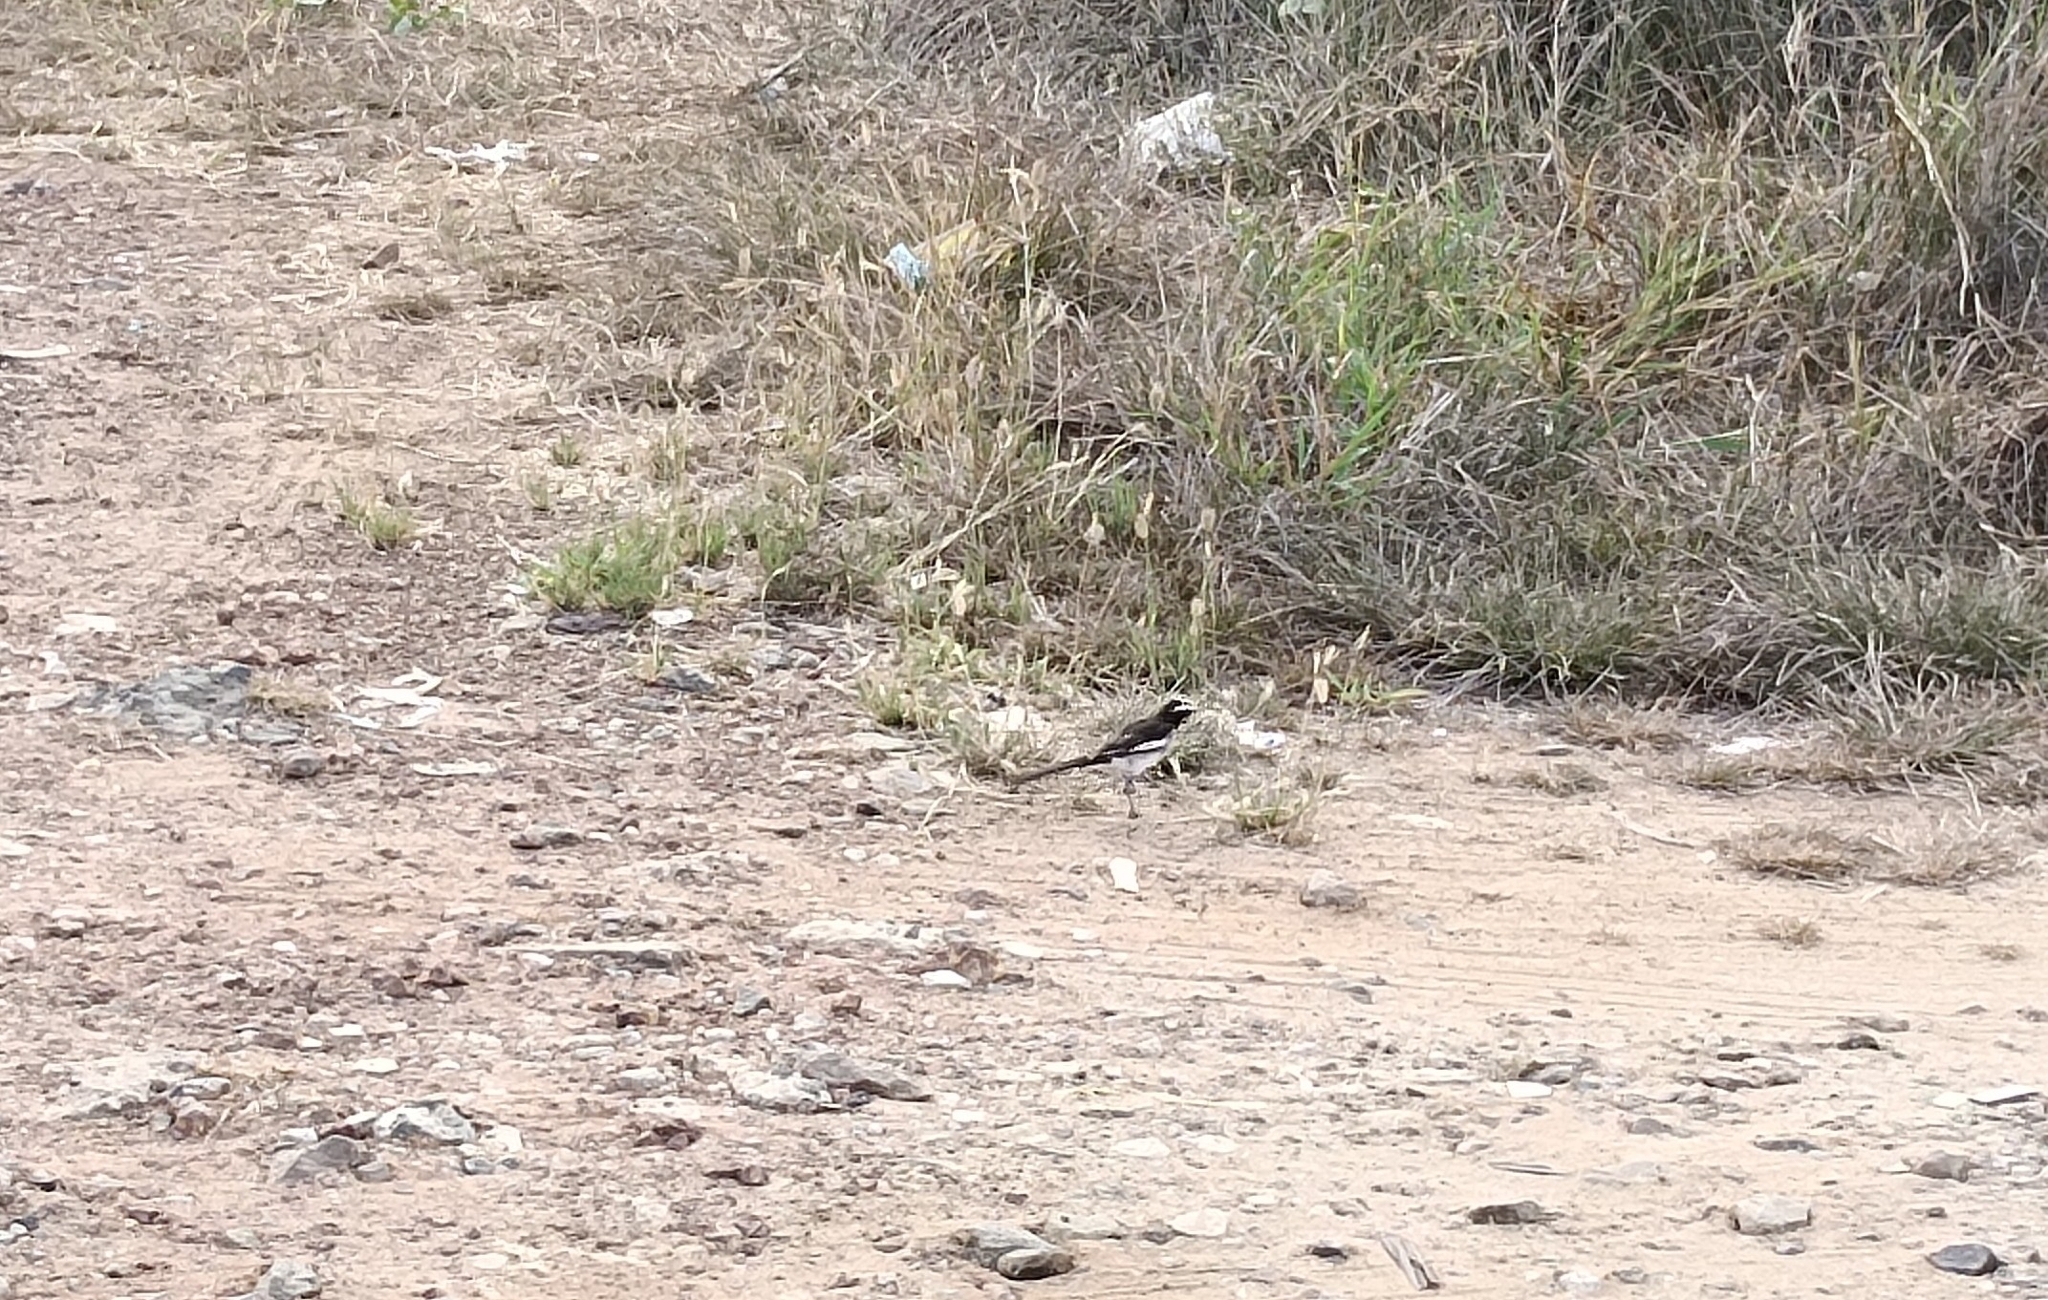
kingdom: Animalia
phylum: Chordata
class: Aves
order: Passeriformes
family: Motacillidae
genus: Motacilla
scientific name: Motacilla maderaspatensis
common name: White-browed wagtail
